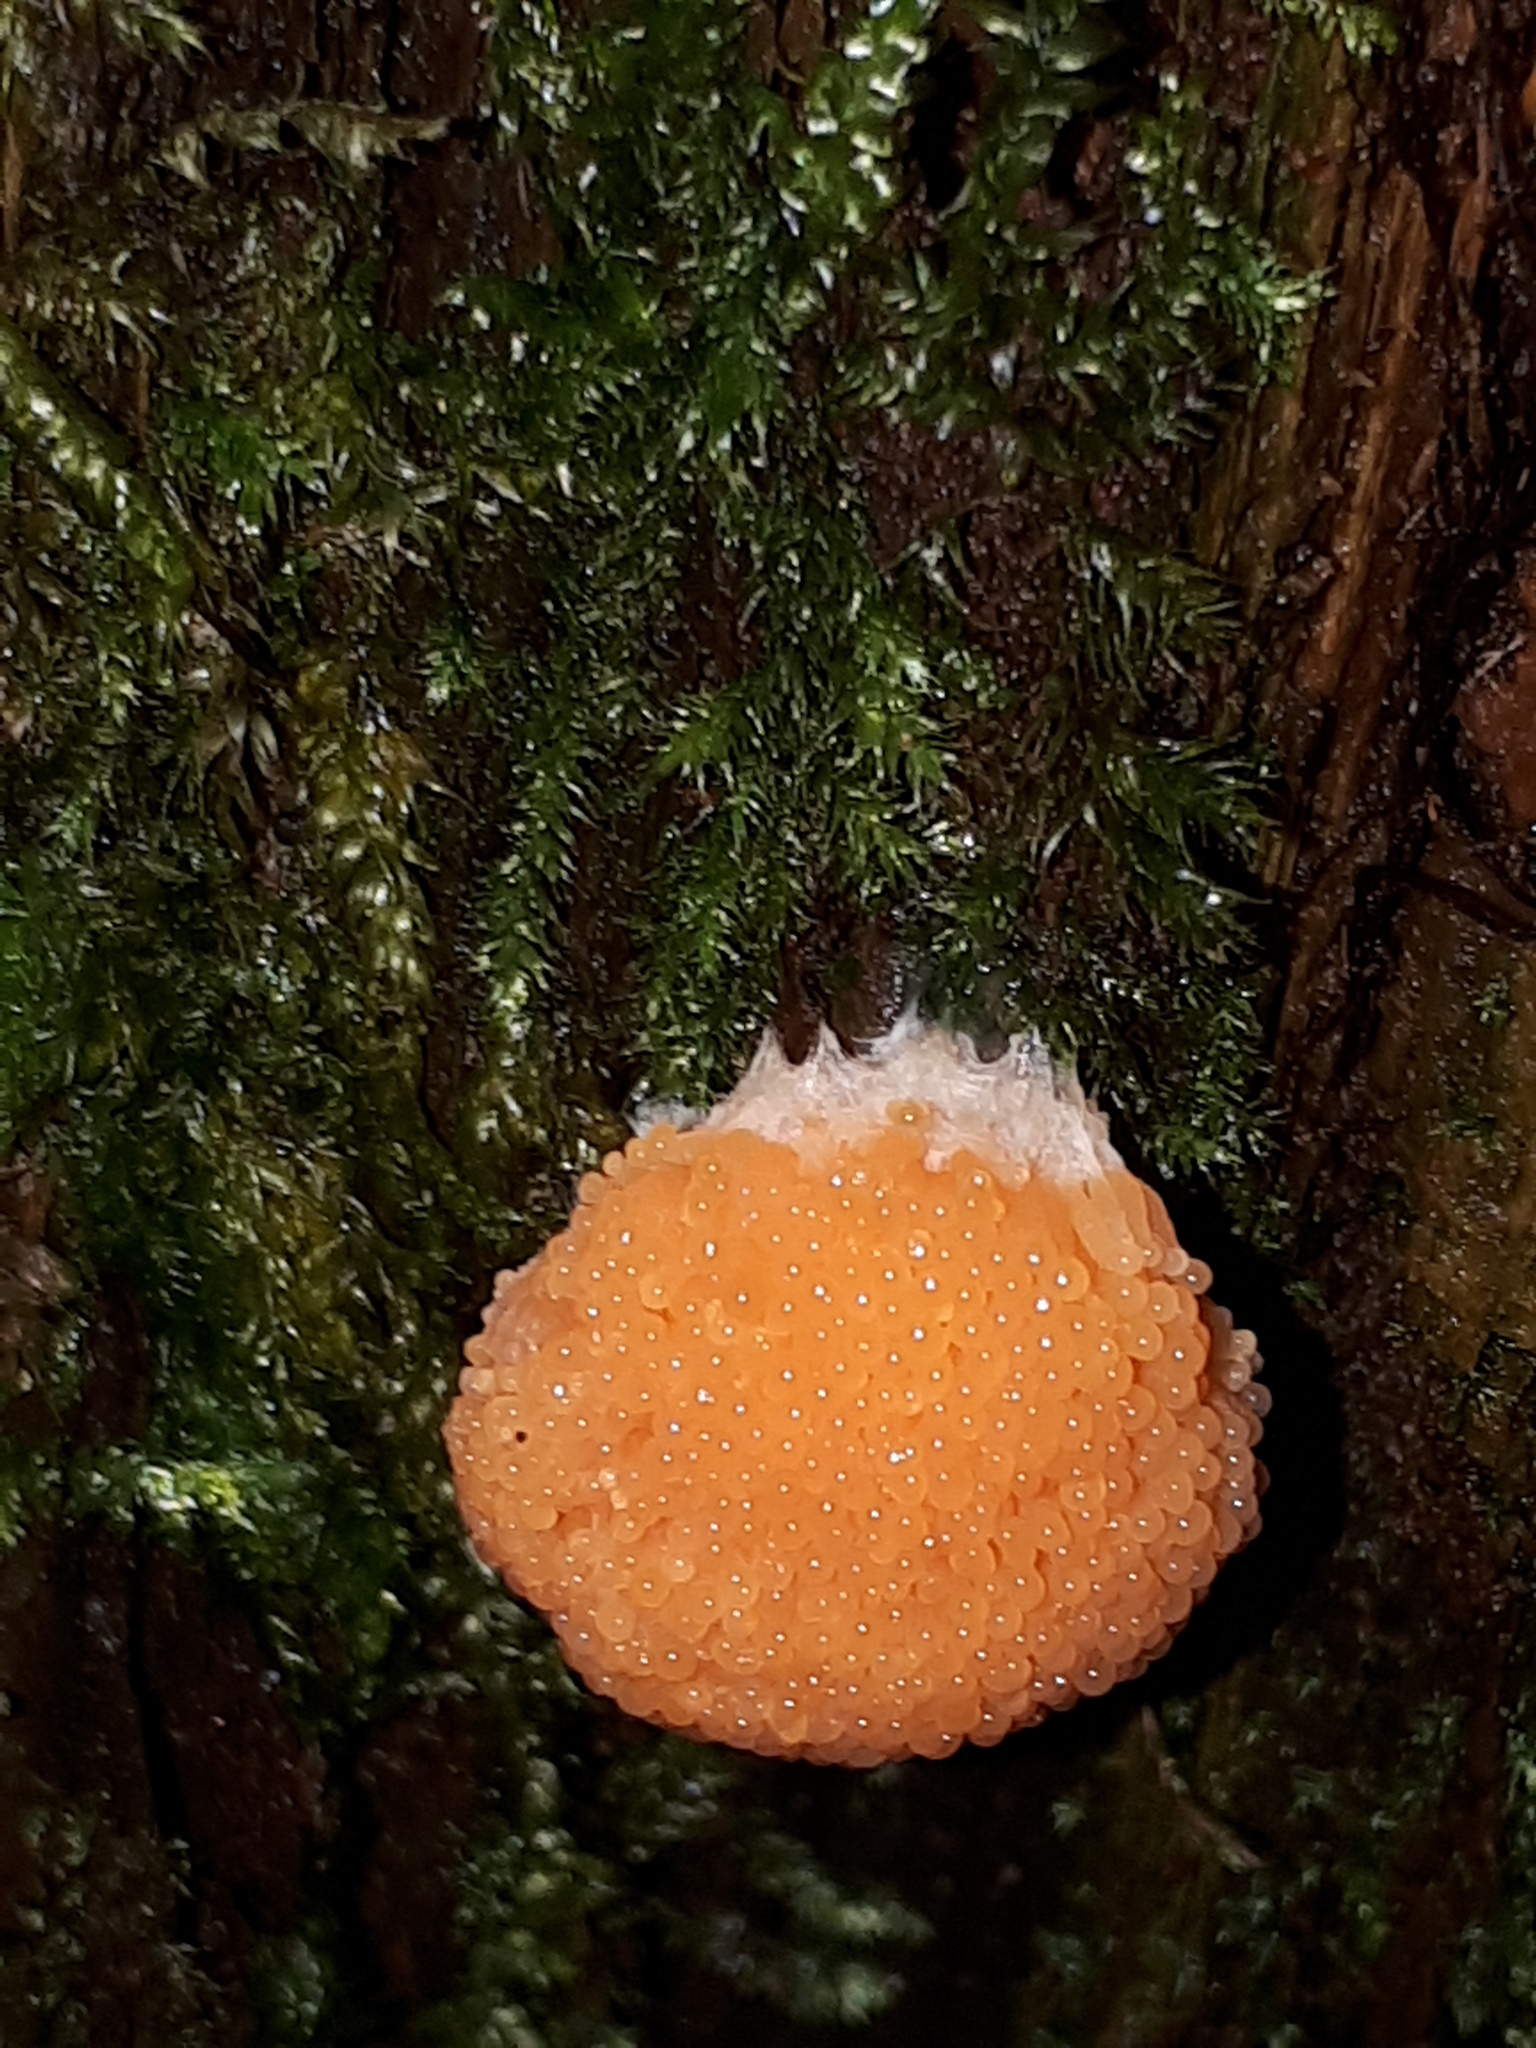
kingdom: Protozoa
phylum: Mycetozoa
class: Myxomycetes
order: Cribrariales
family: Tubiferaceae
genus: Tubifera
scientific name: Tubifera ferruginosa
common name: Red raspberry slime mold
